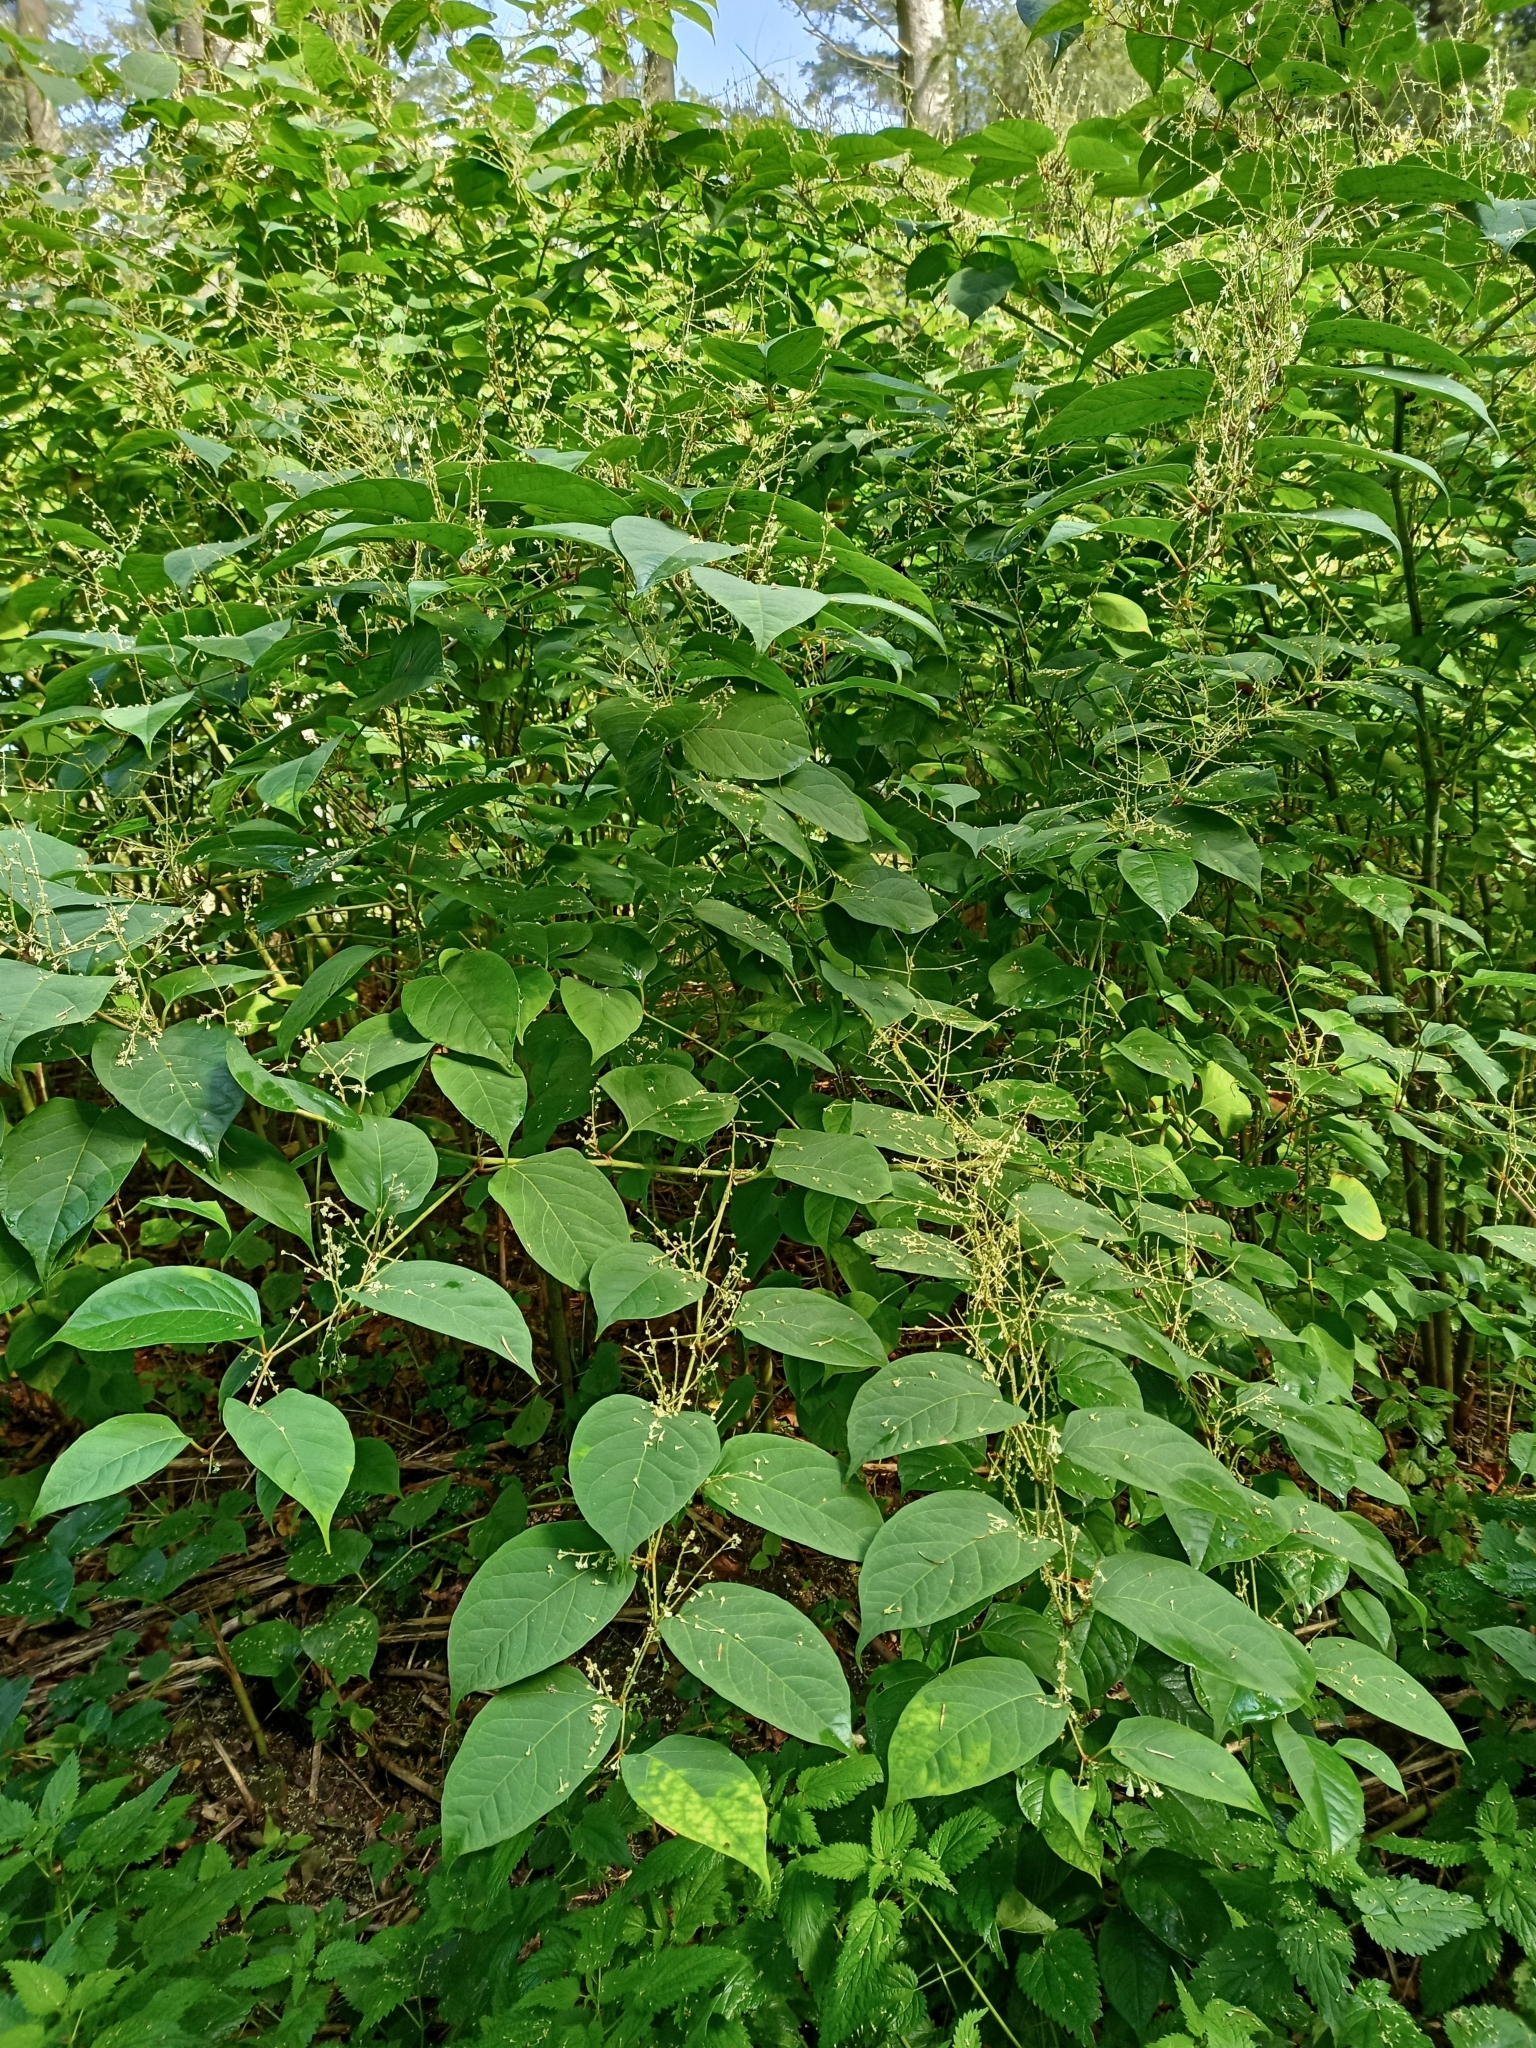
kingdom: Plantae
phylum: Tracheophyta
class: Magnoliopsida
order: Caryophyllales
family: Polygonaceae
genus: Reynoutria
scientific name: Reynoutria bohemica
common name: Bohemian knotweed
